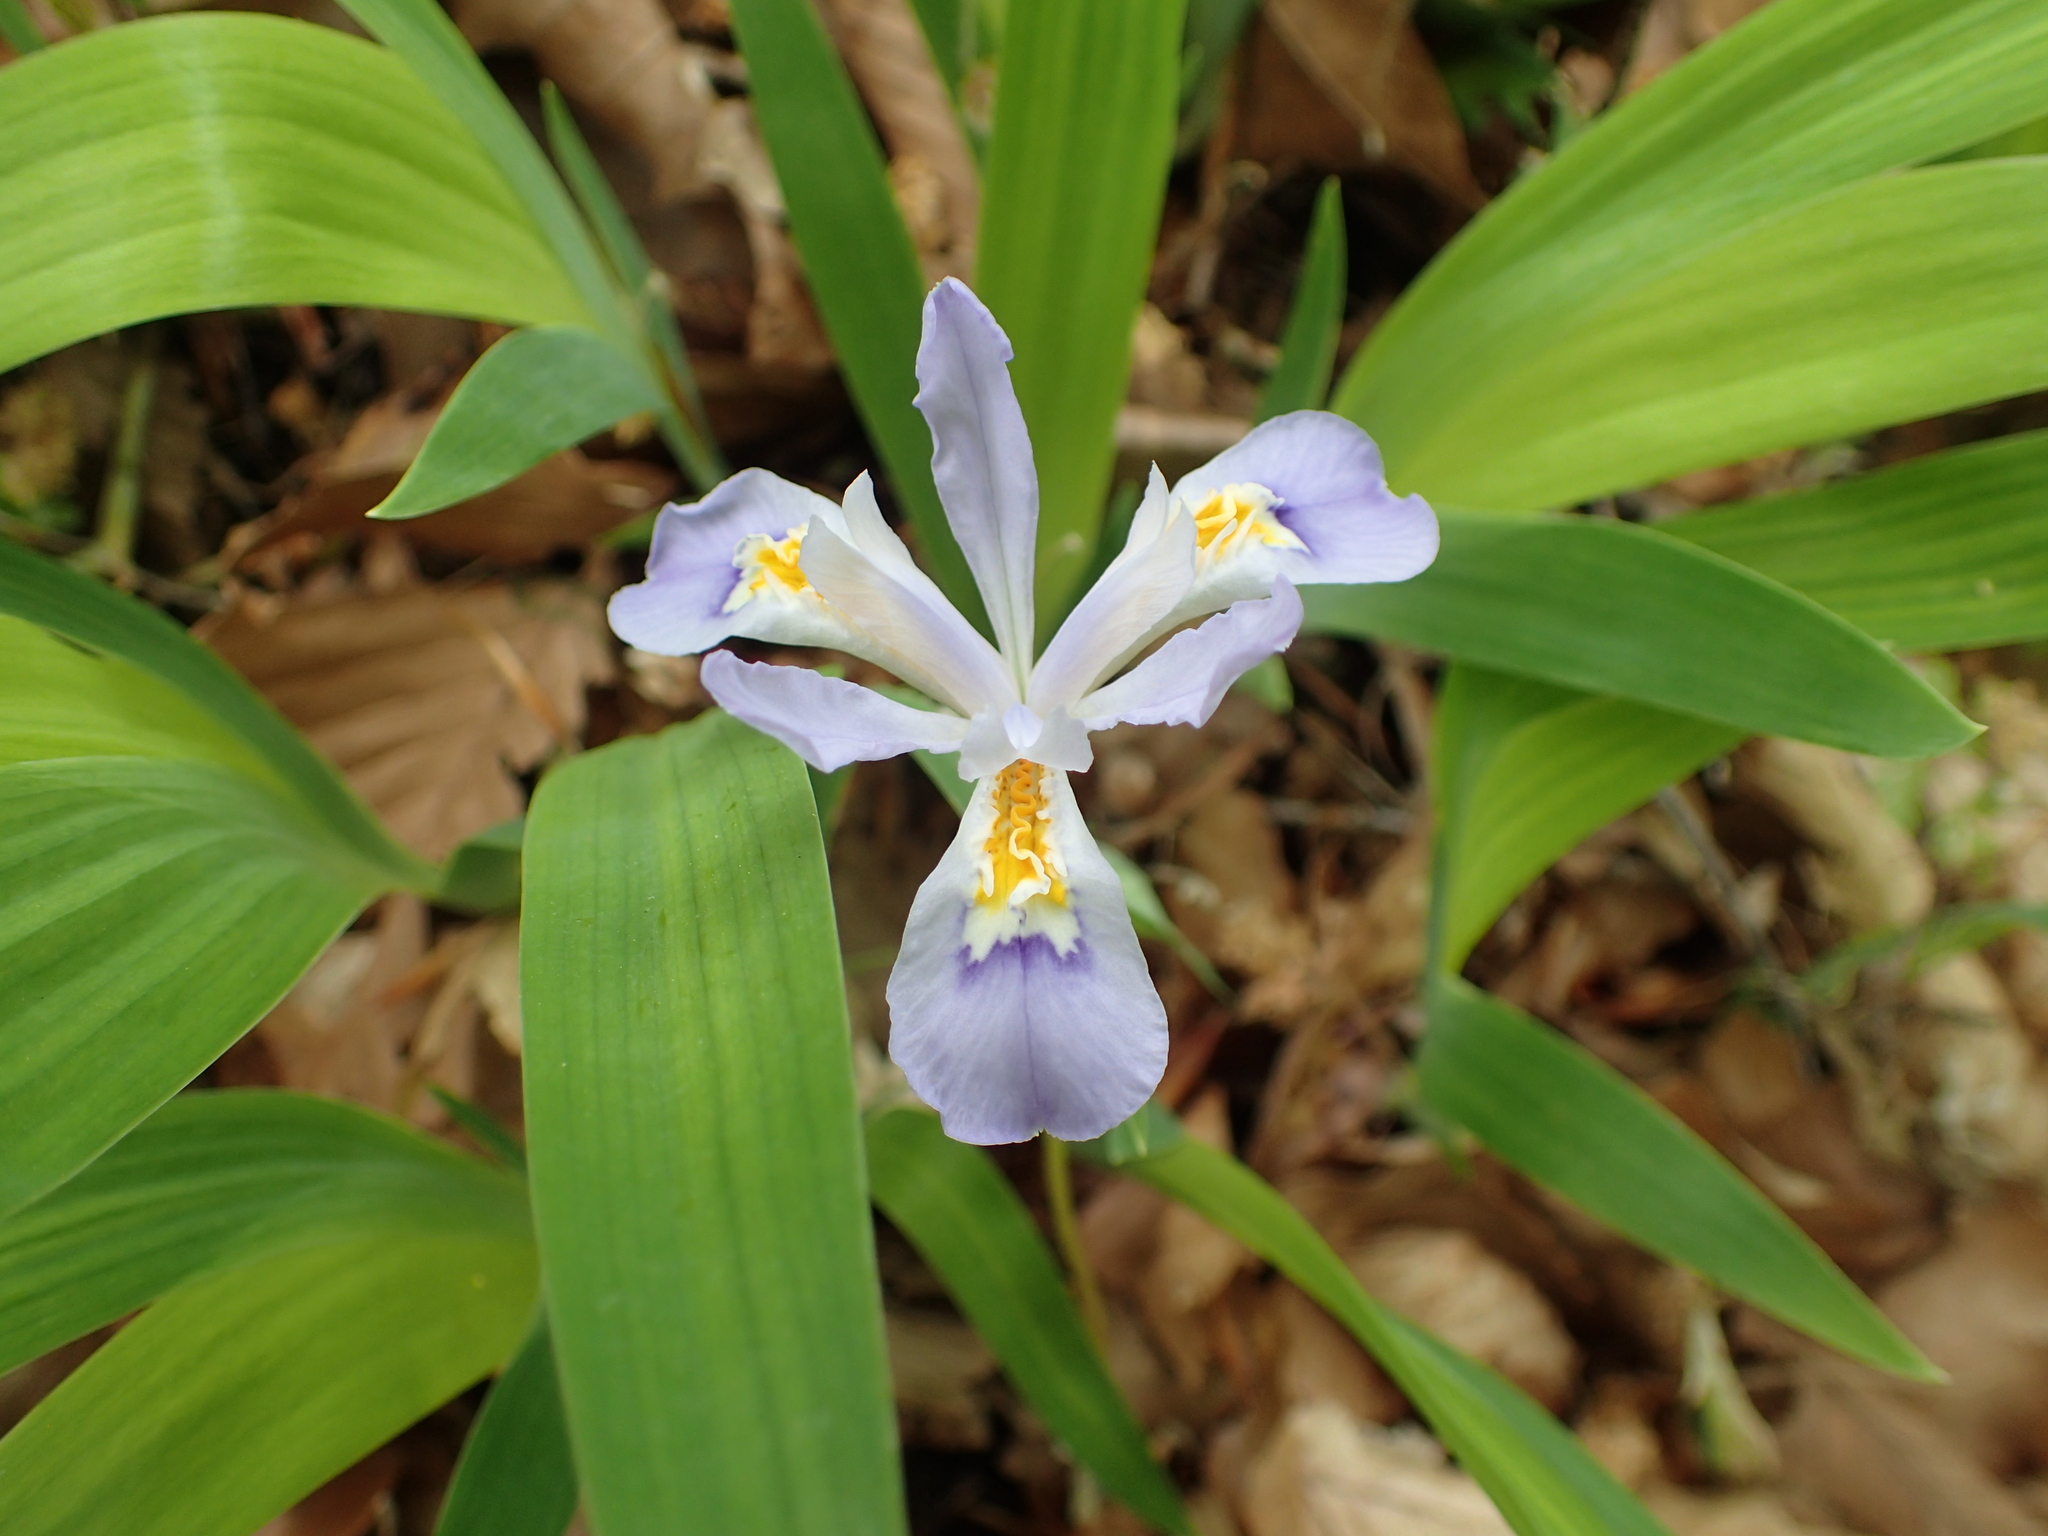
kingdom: Plantae
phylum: Tracheophyta
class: Liliopsida
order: Asparagales
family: Iridaceae
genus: Iris
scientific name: Iris cristata
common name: Crested iris
